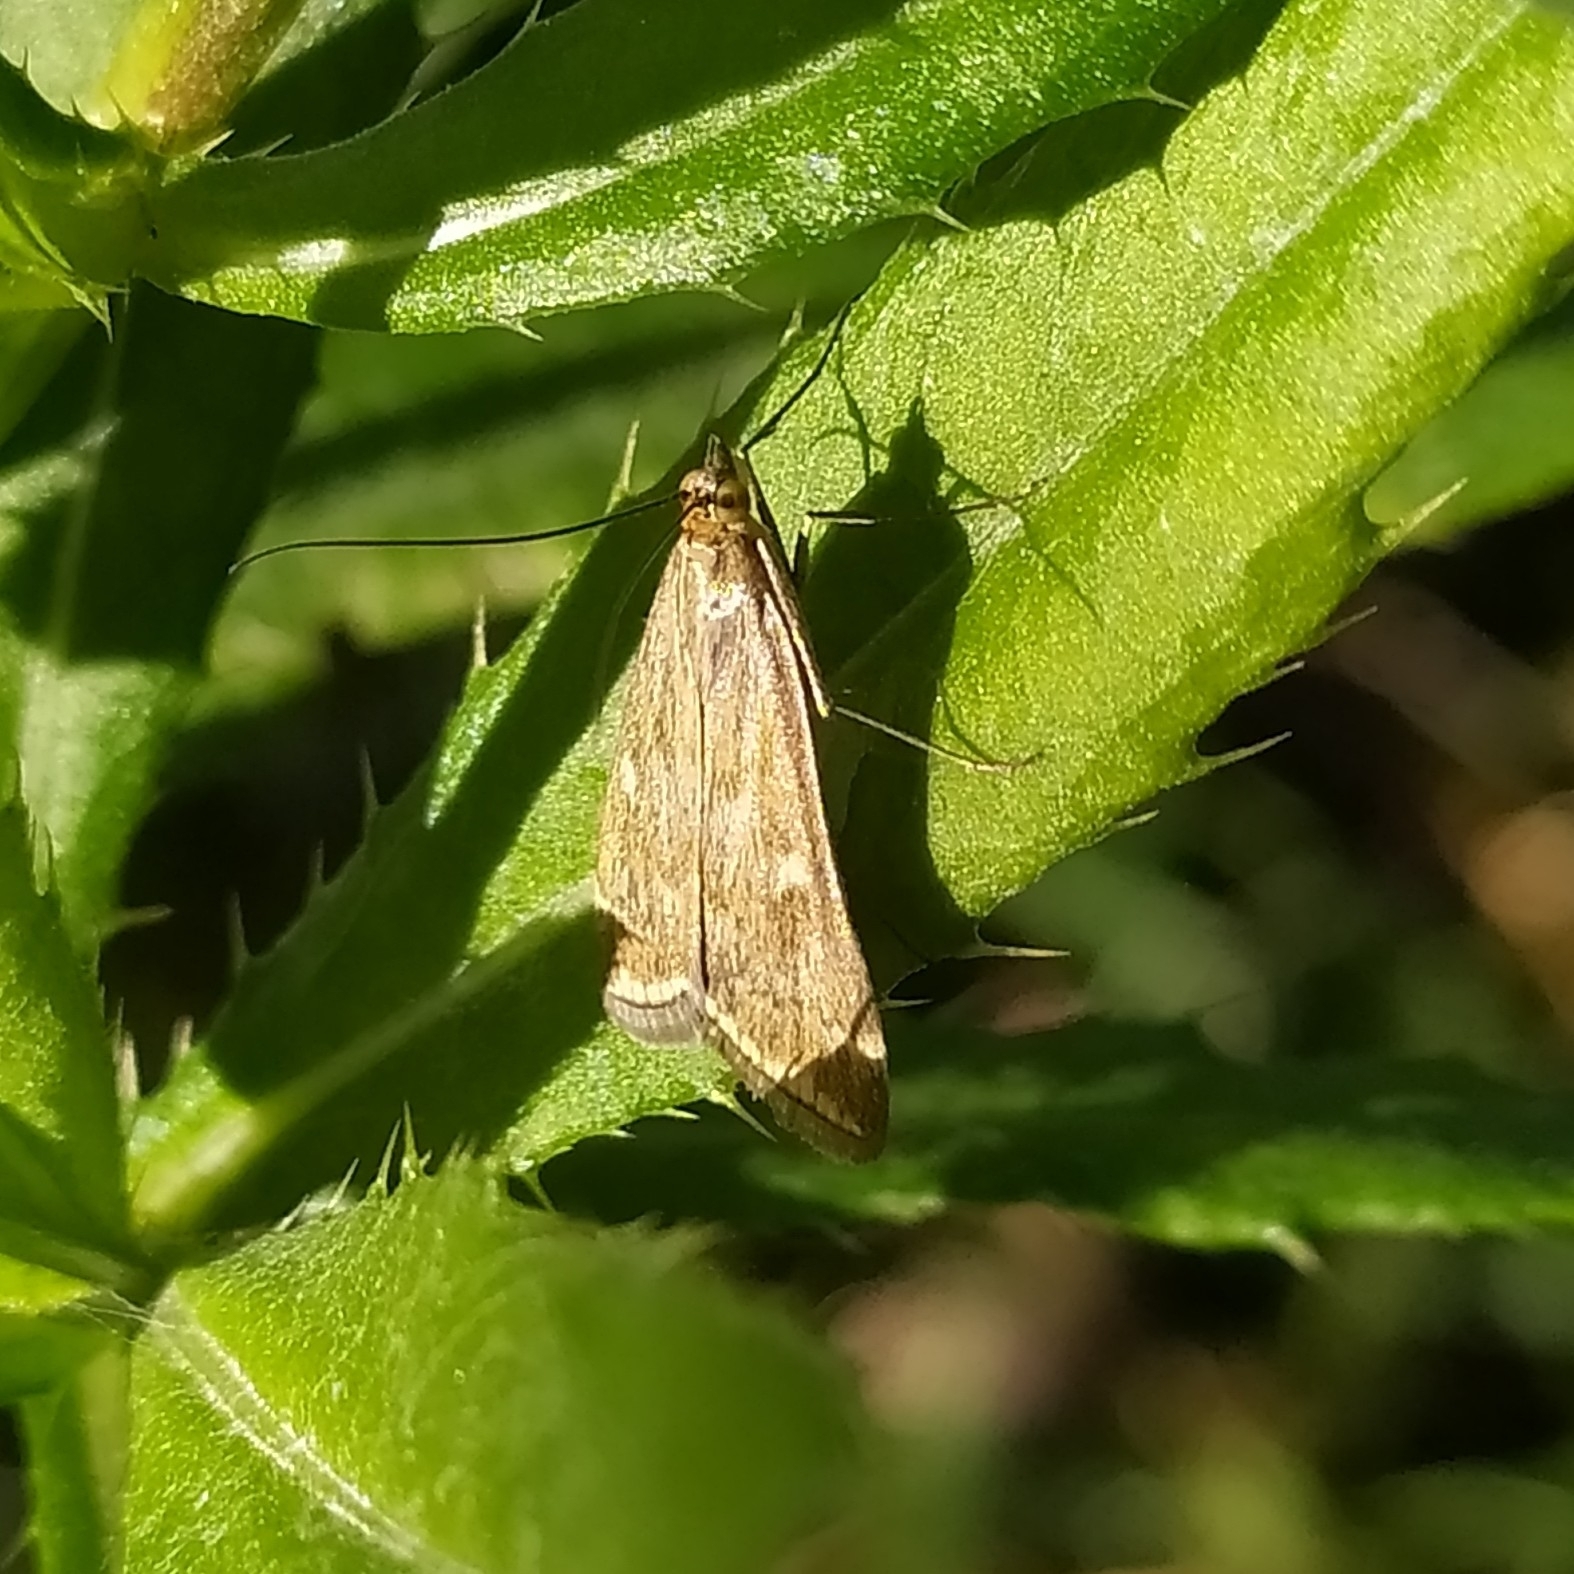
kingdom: Animalia
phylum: Arthropoda
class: Insecta
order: Lepidoptera
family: Crambidae
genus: Loxostege
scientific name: Loxostege sticticalis
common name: Crambid moth
